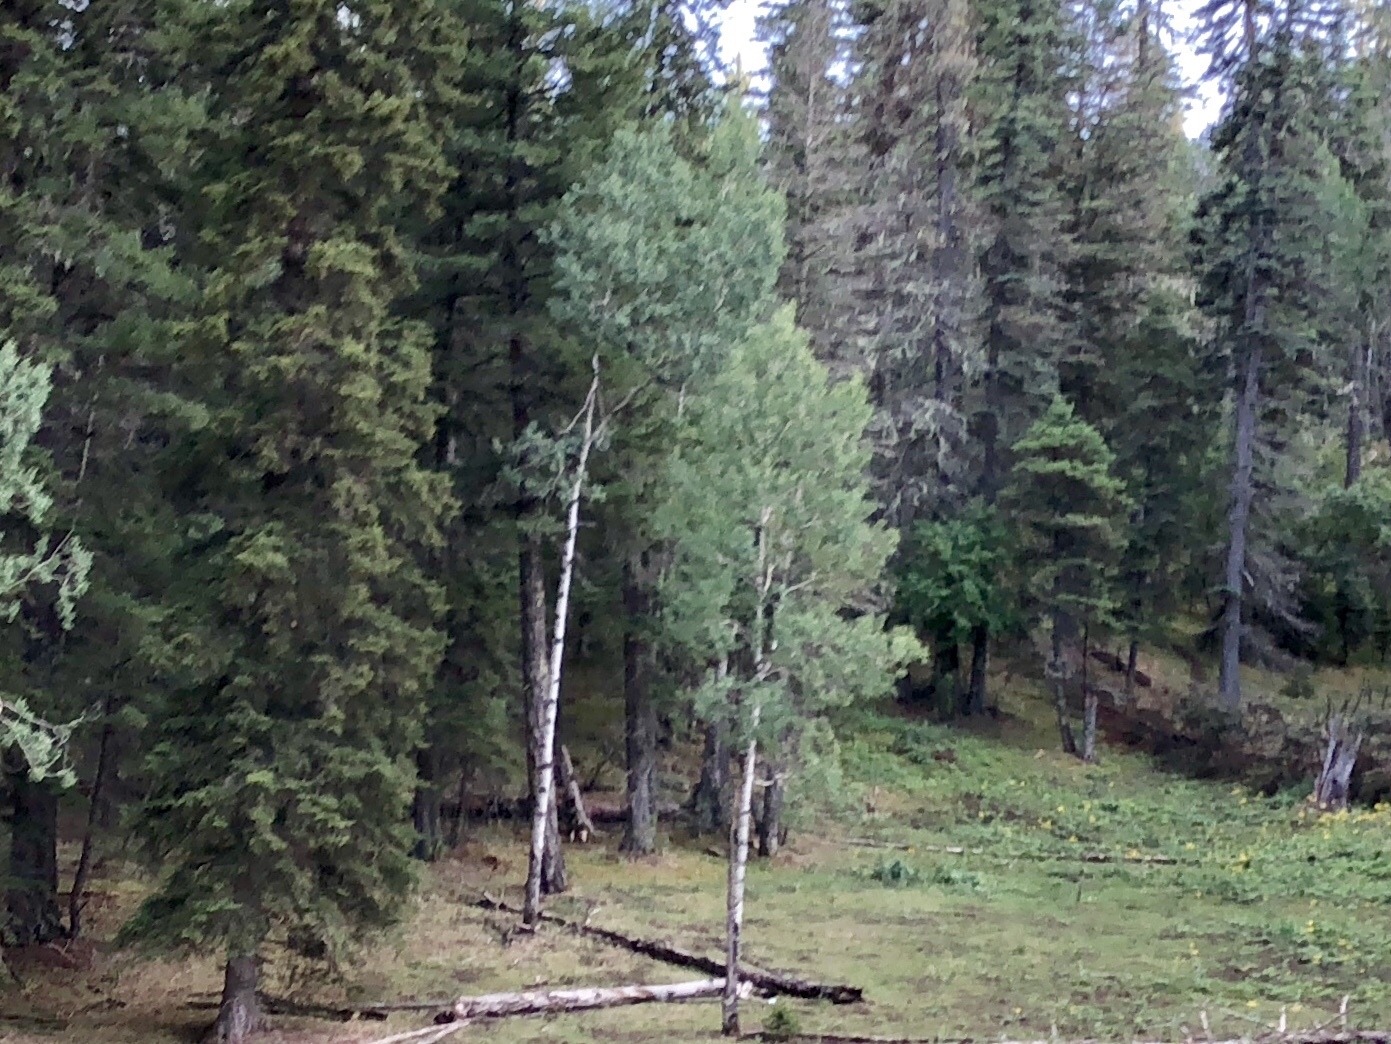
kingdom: Plantae
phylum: Tracheophyta
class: Magnoliopsida
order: Malpighiales
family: Salicaceae
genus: Populus
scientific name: Populus tremuloides
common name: Quaking aspen
